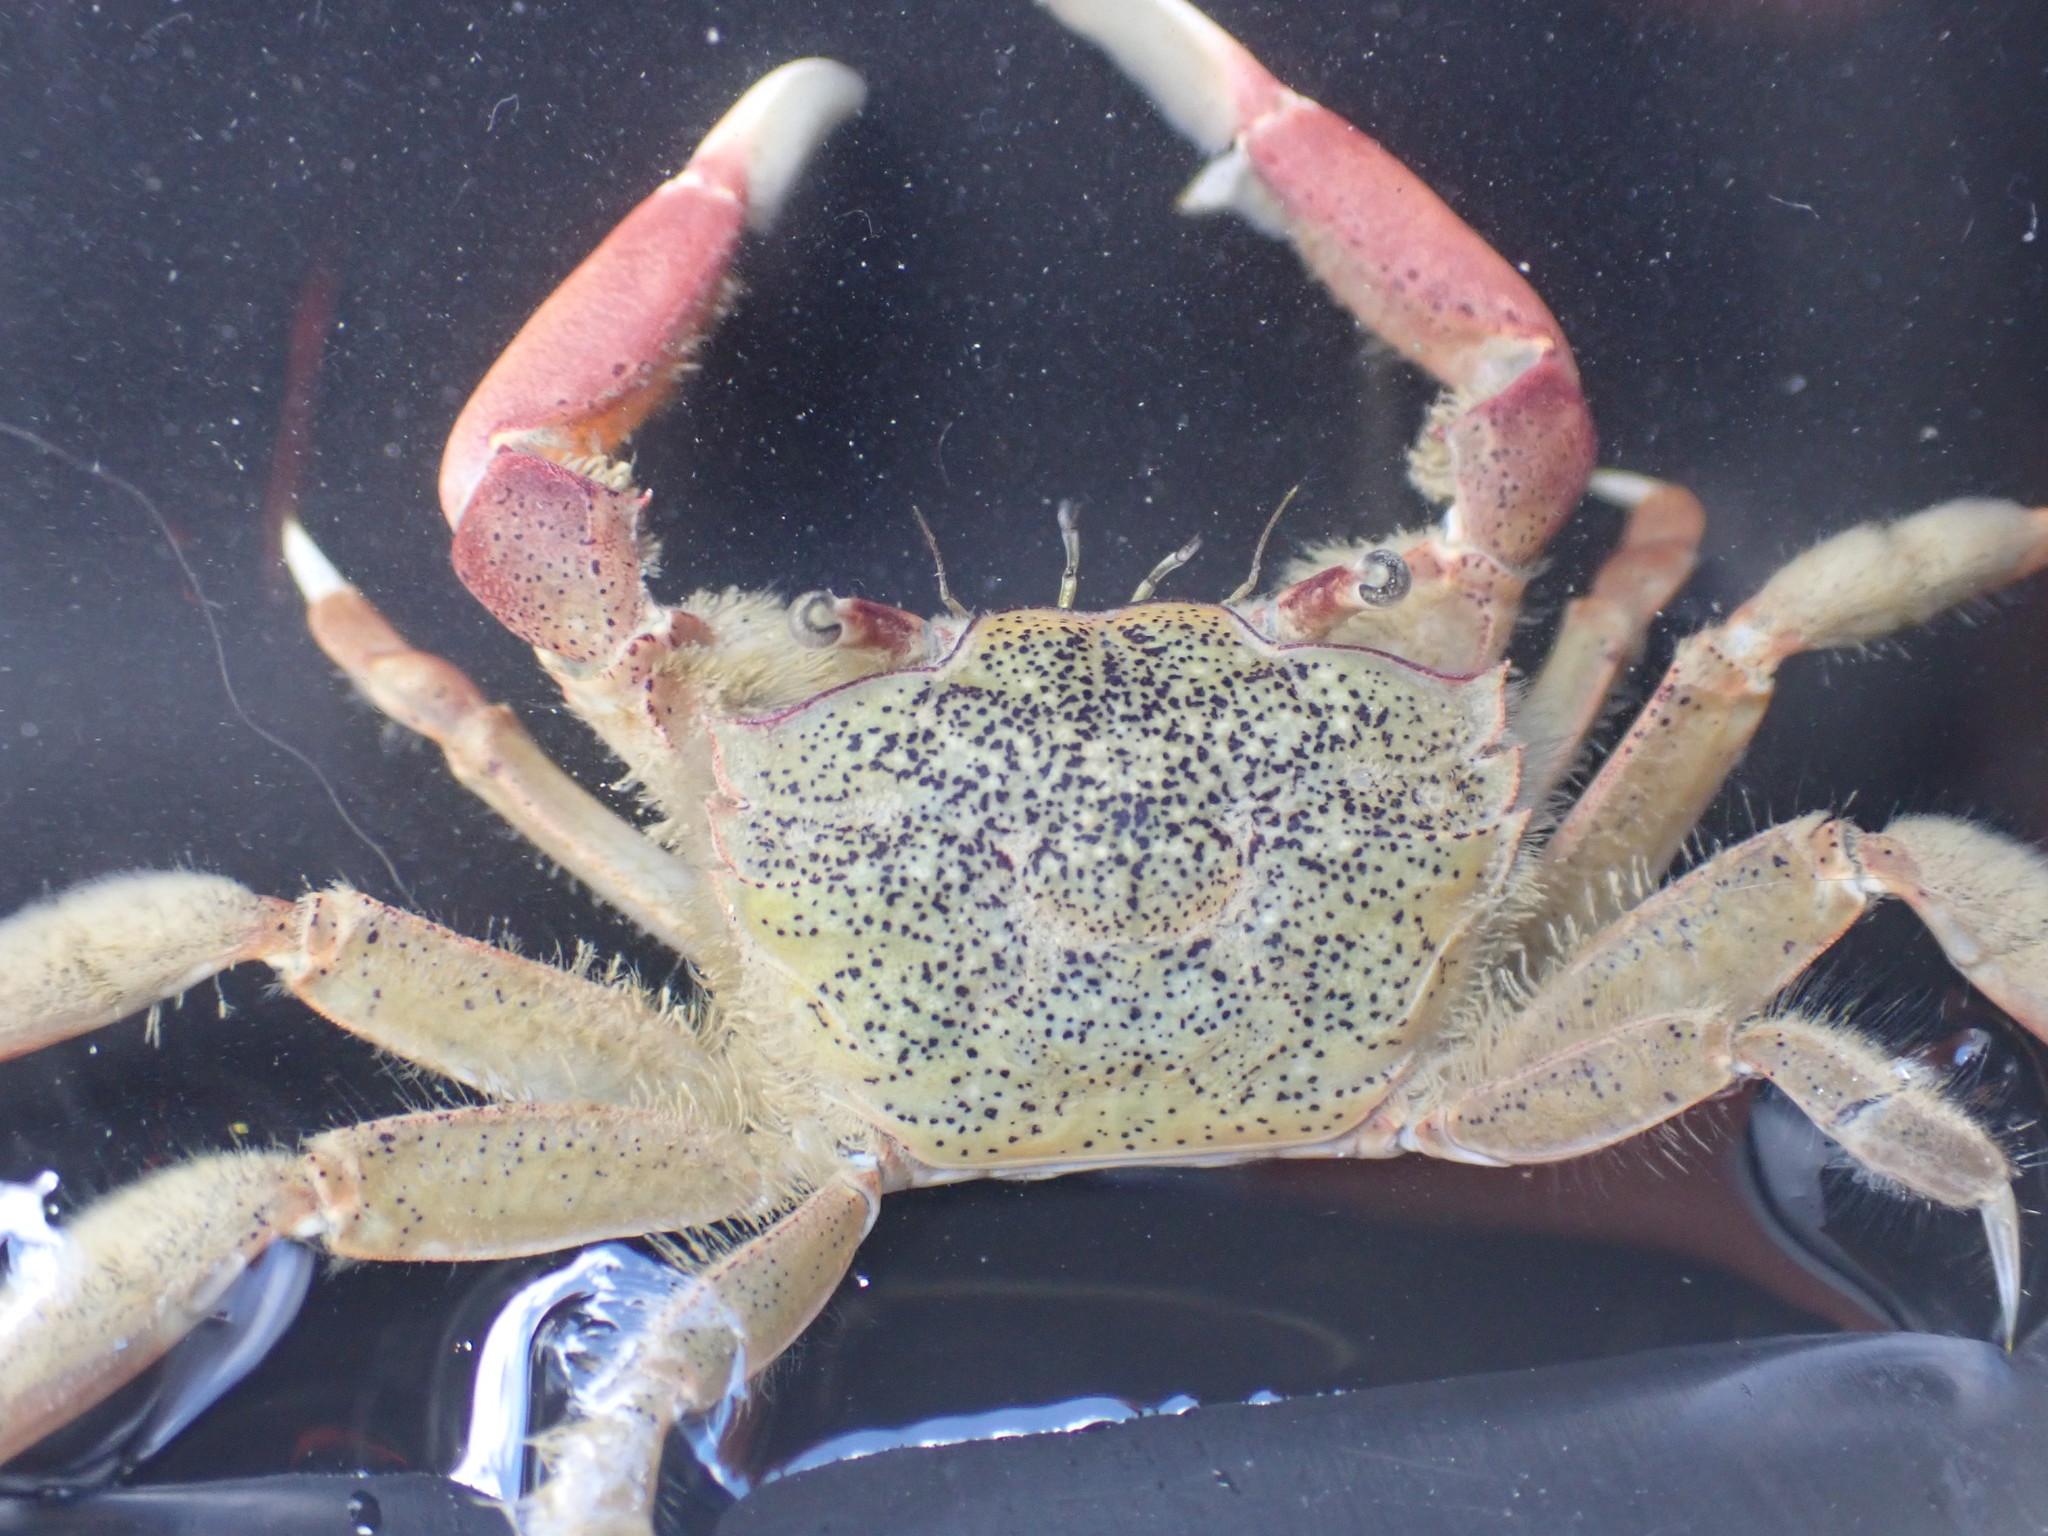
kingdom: Animalia
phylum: Arthropoda
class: Malacostraca
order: Decapoda
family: Macrophthalmidae
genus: Hemiplax
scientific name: Hemiplax hirtipes
